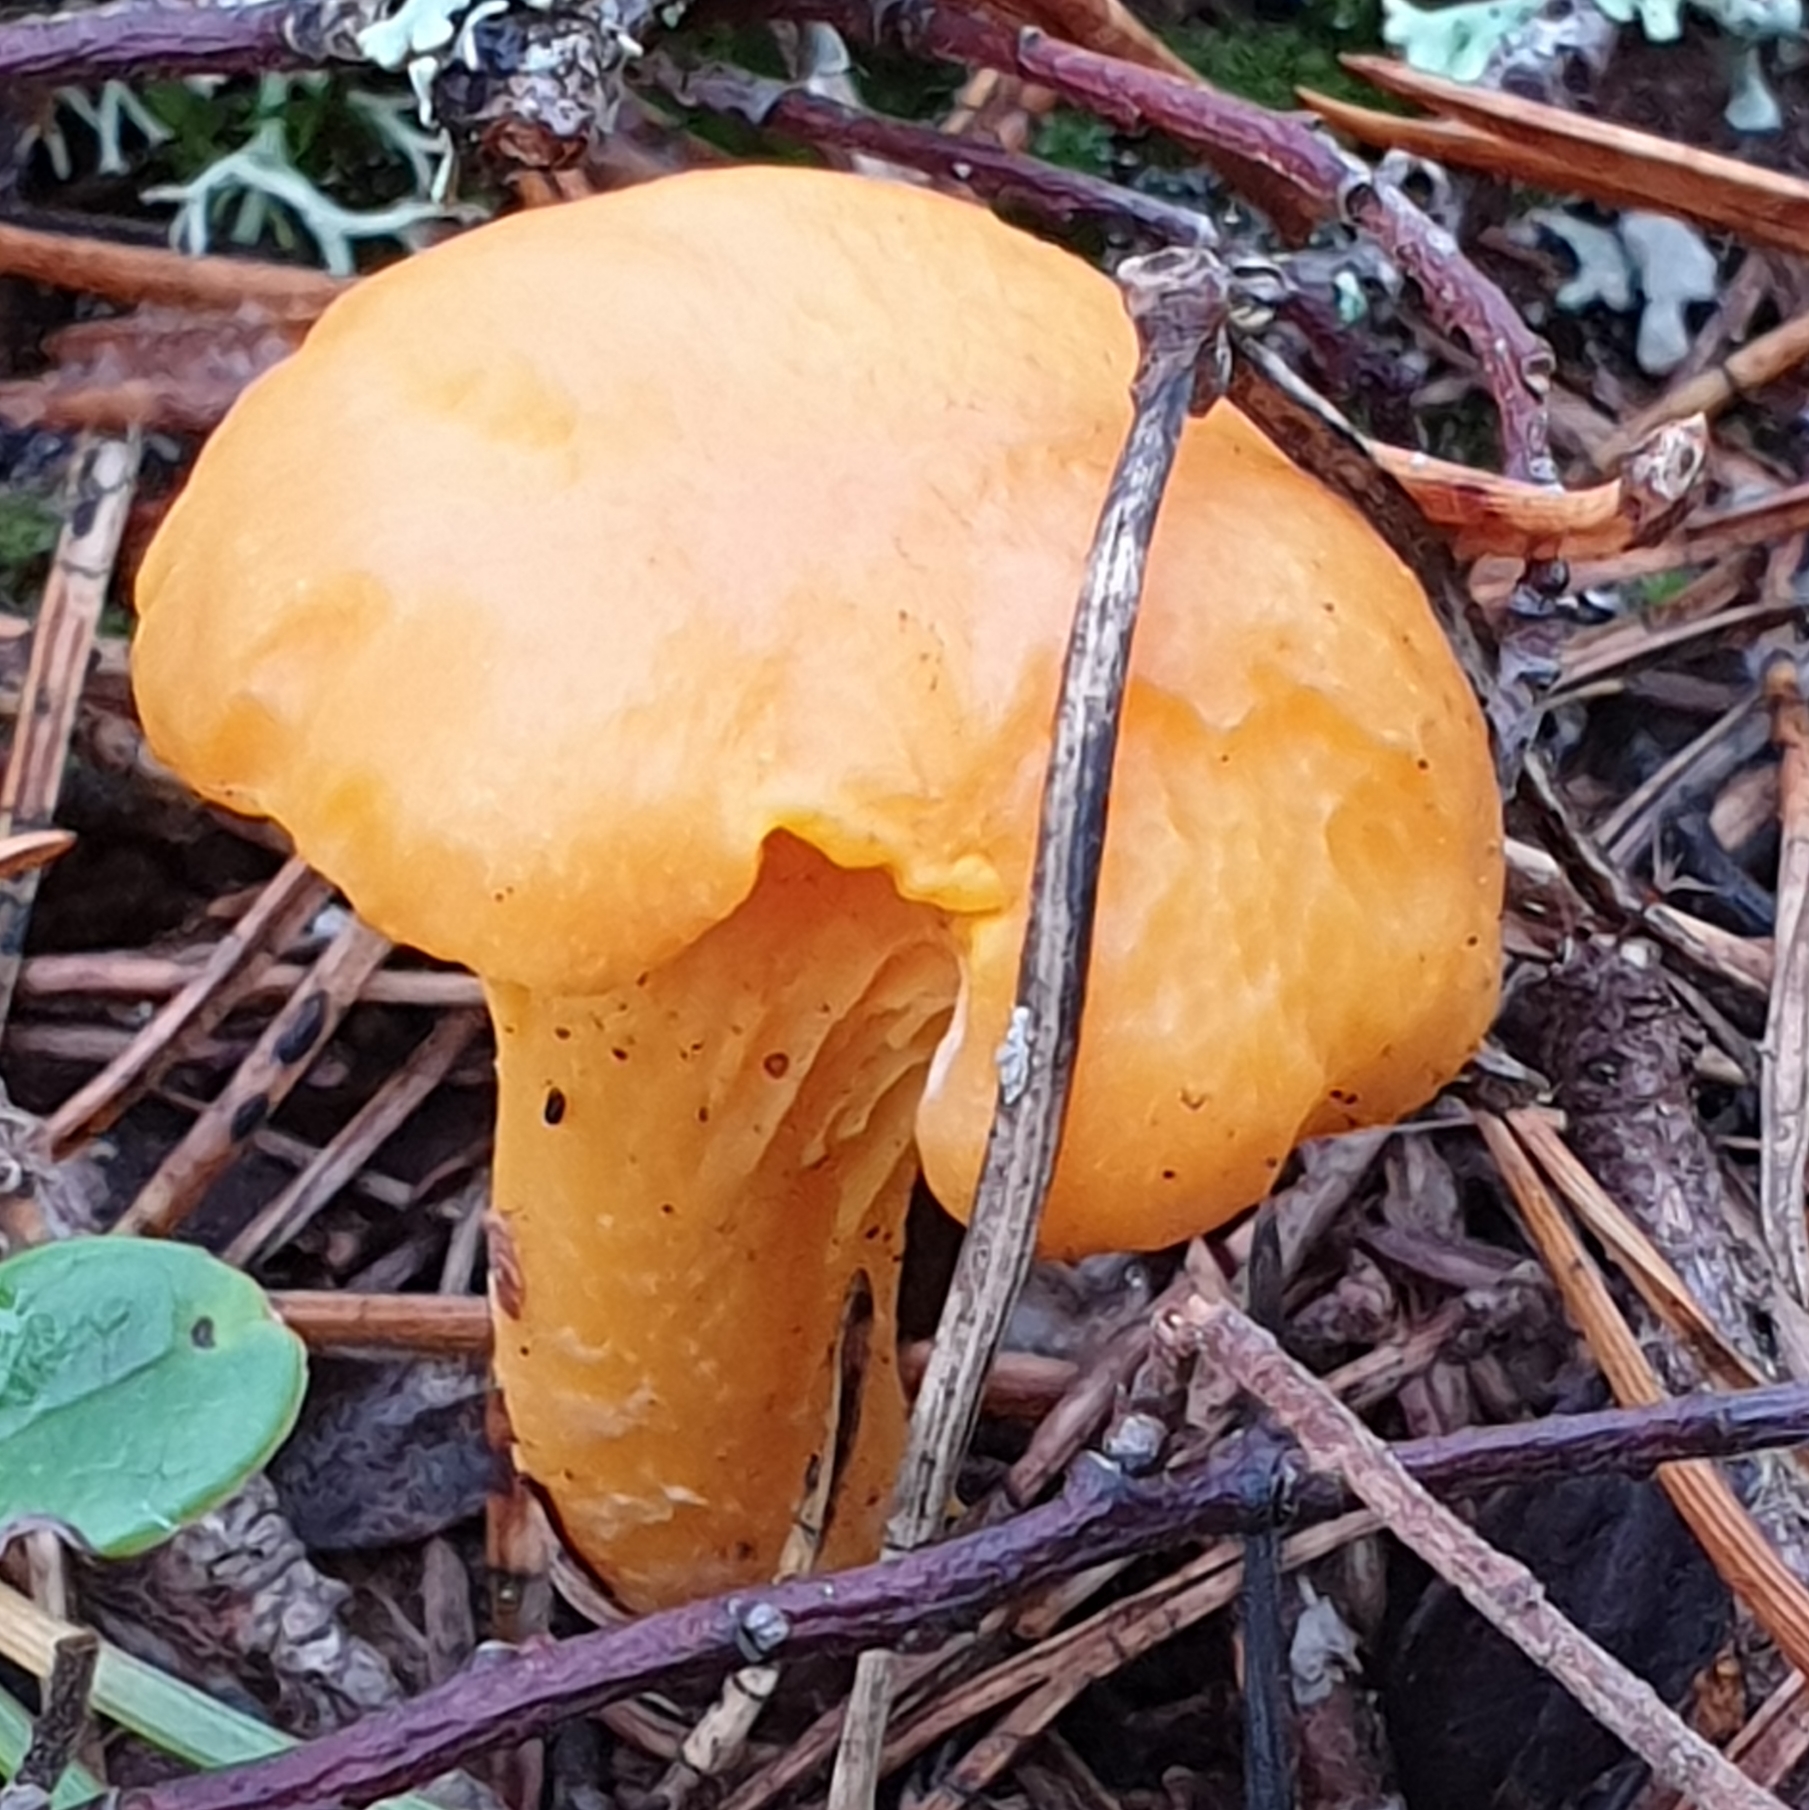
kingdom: Fungi
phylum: Basidiomycota
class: Agaricomycetes
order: Cantharellales
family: Hydnaceae
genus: Cantharellus
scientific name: Cantharellus cibarius
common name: Chanterelle
